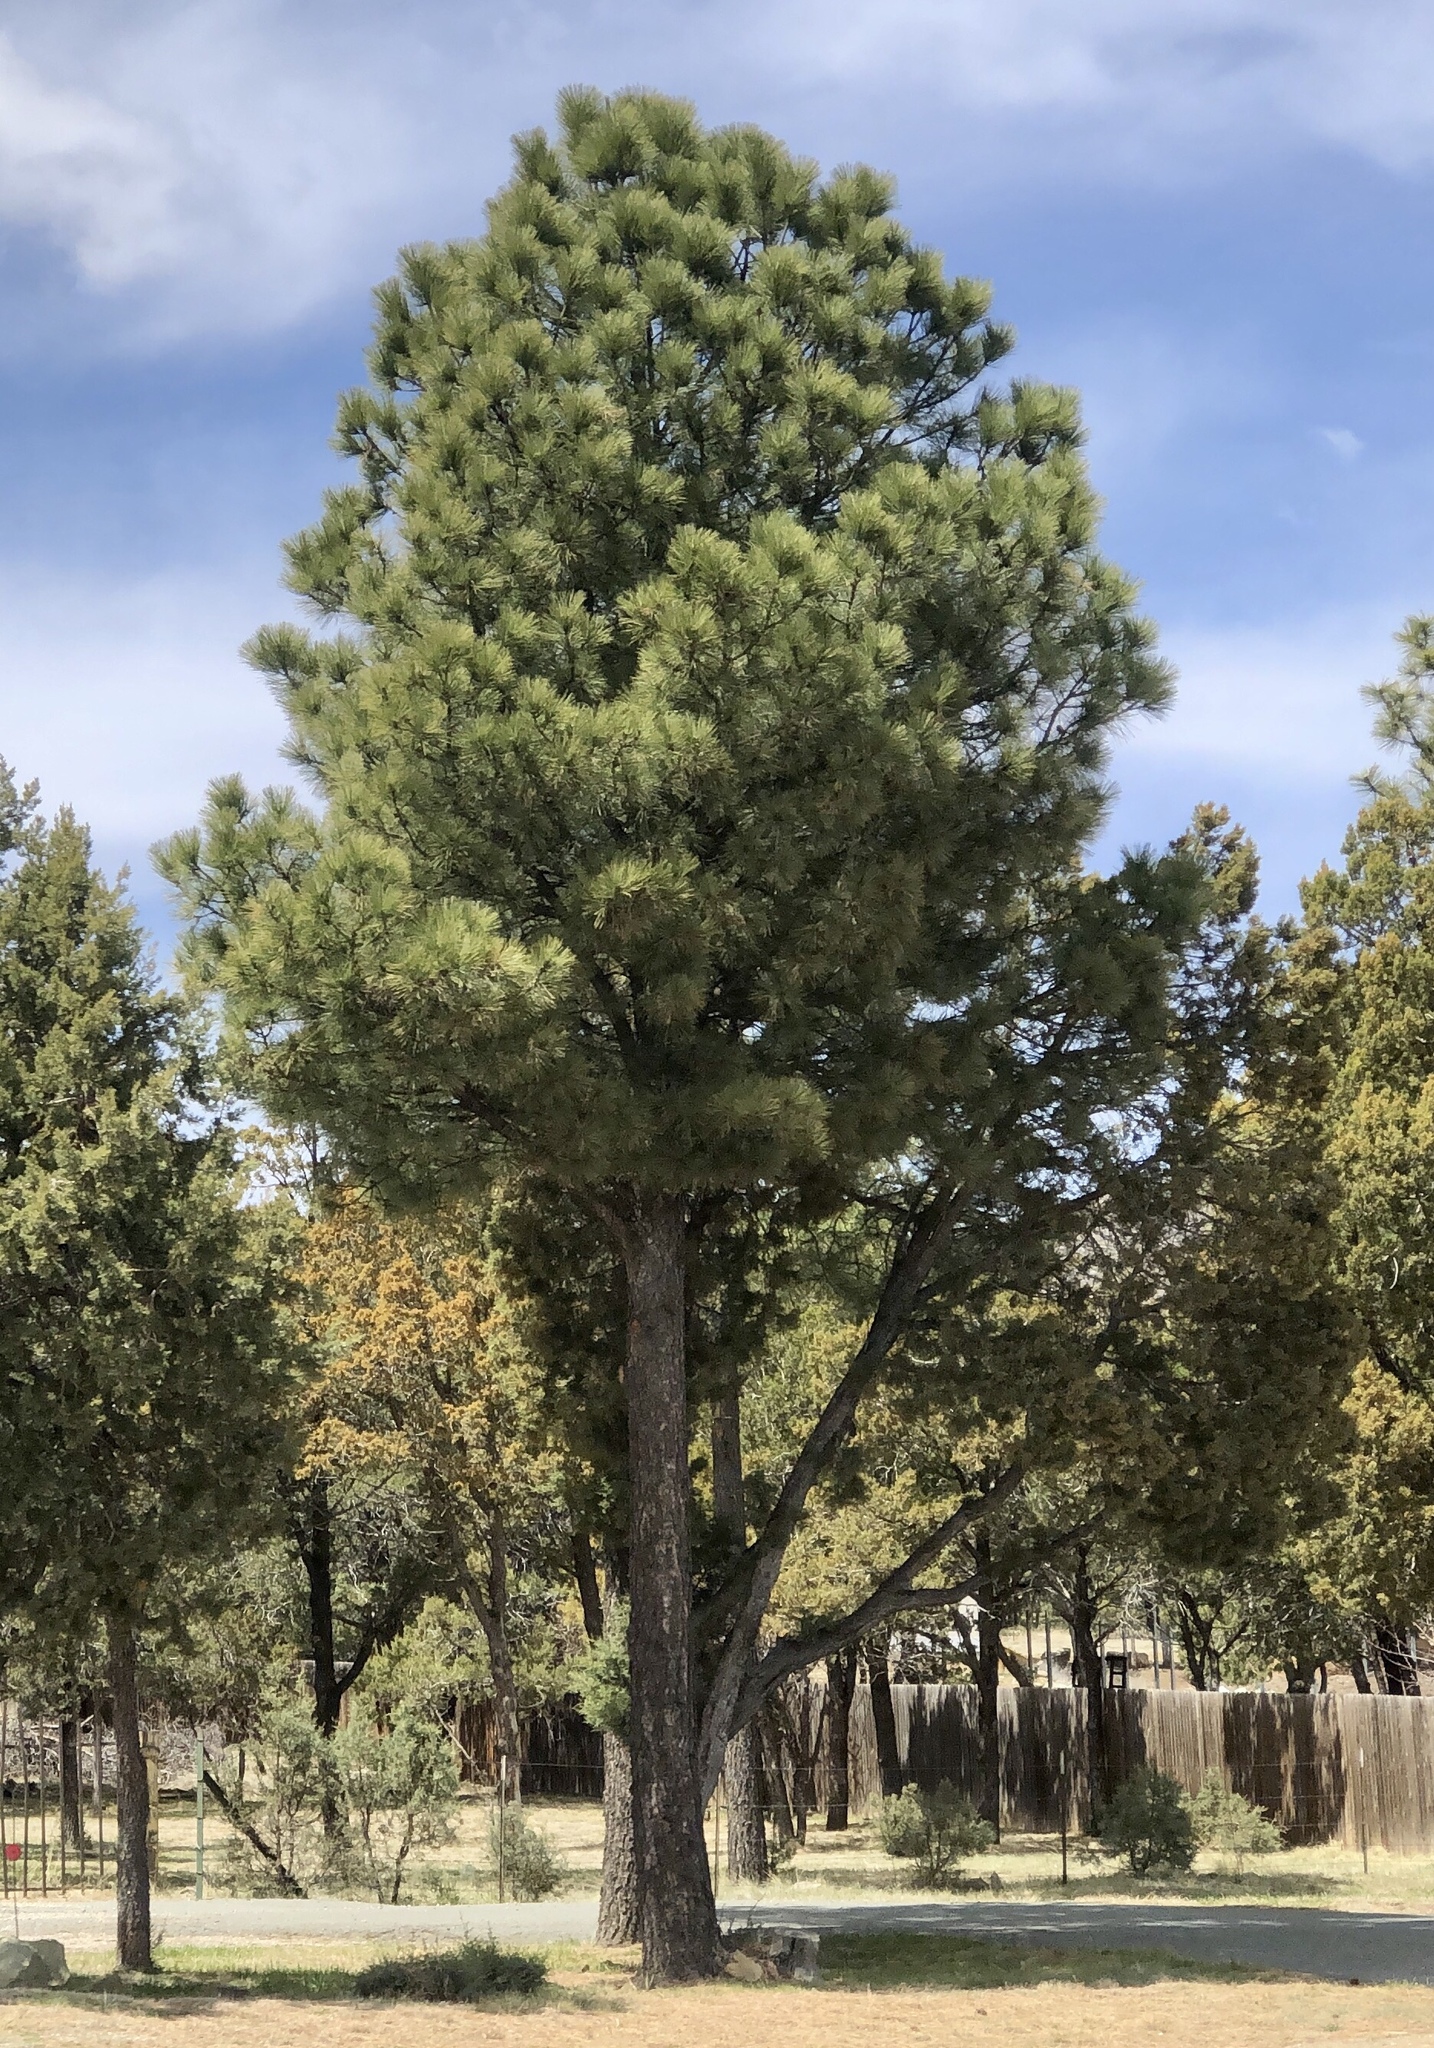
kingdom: Plantae
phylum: Tracheophyta
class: Pinopsida
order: Pinales
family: Pinaceae
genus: Pinus
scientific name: Pinus ponderosa
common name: Western yellow-pine
